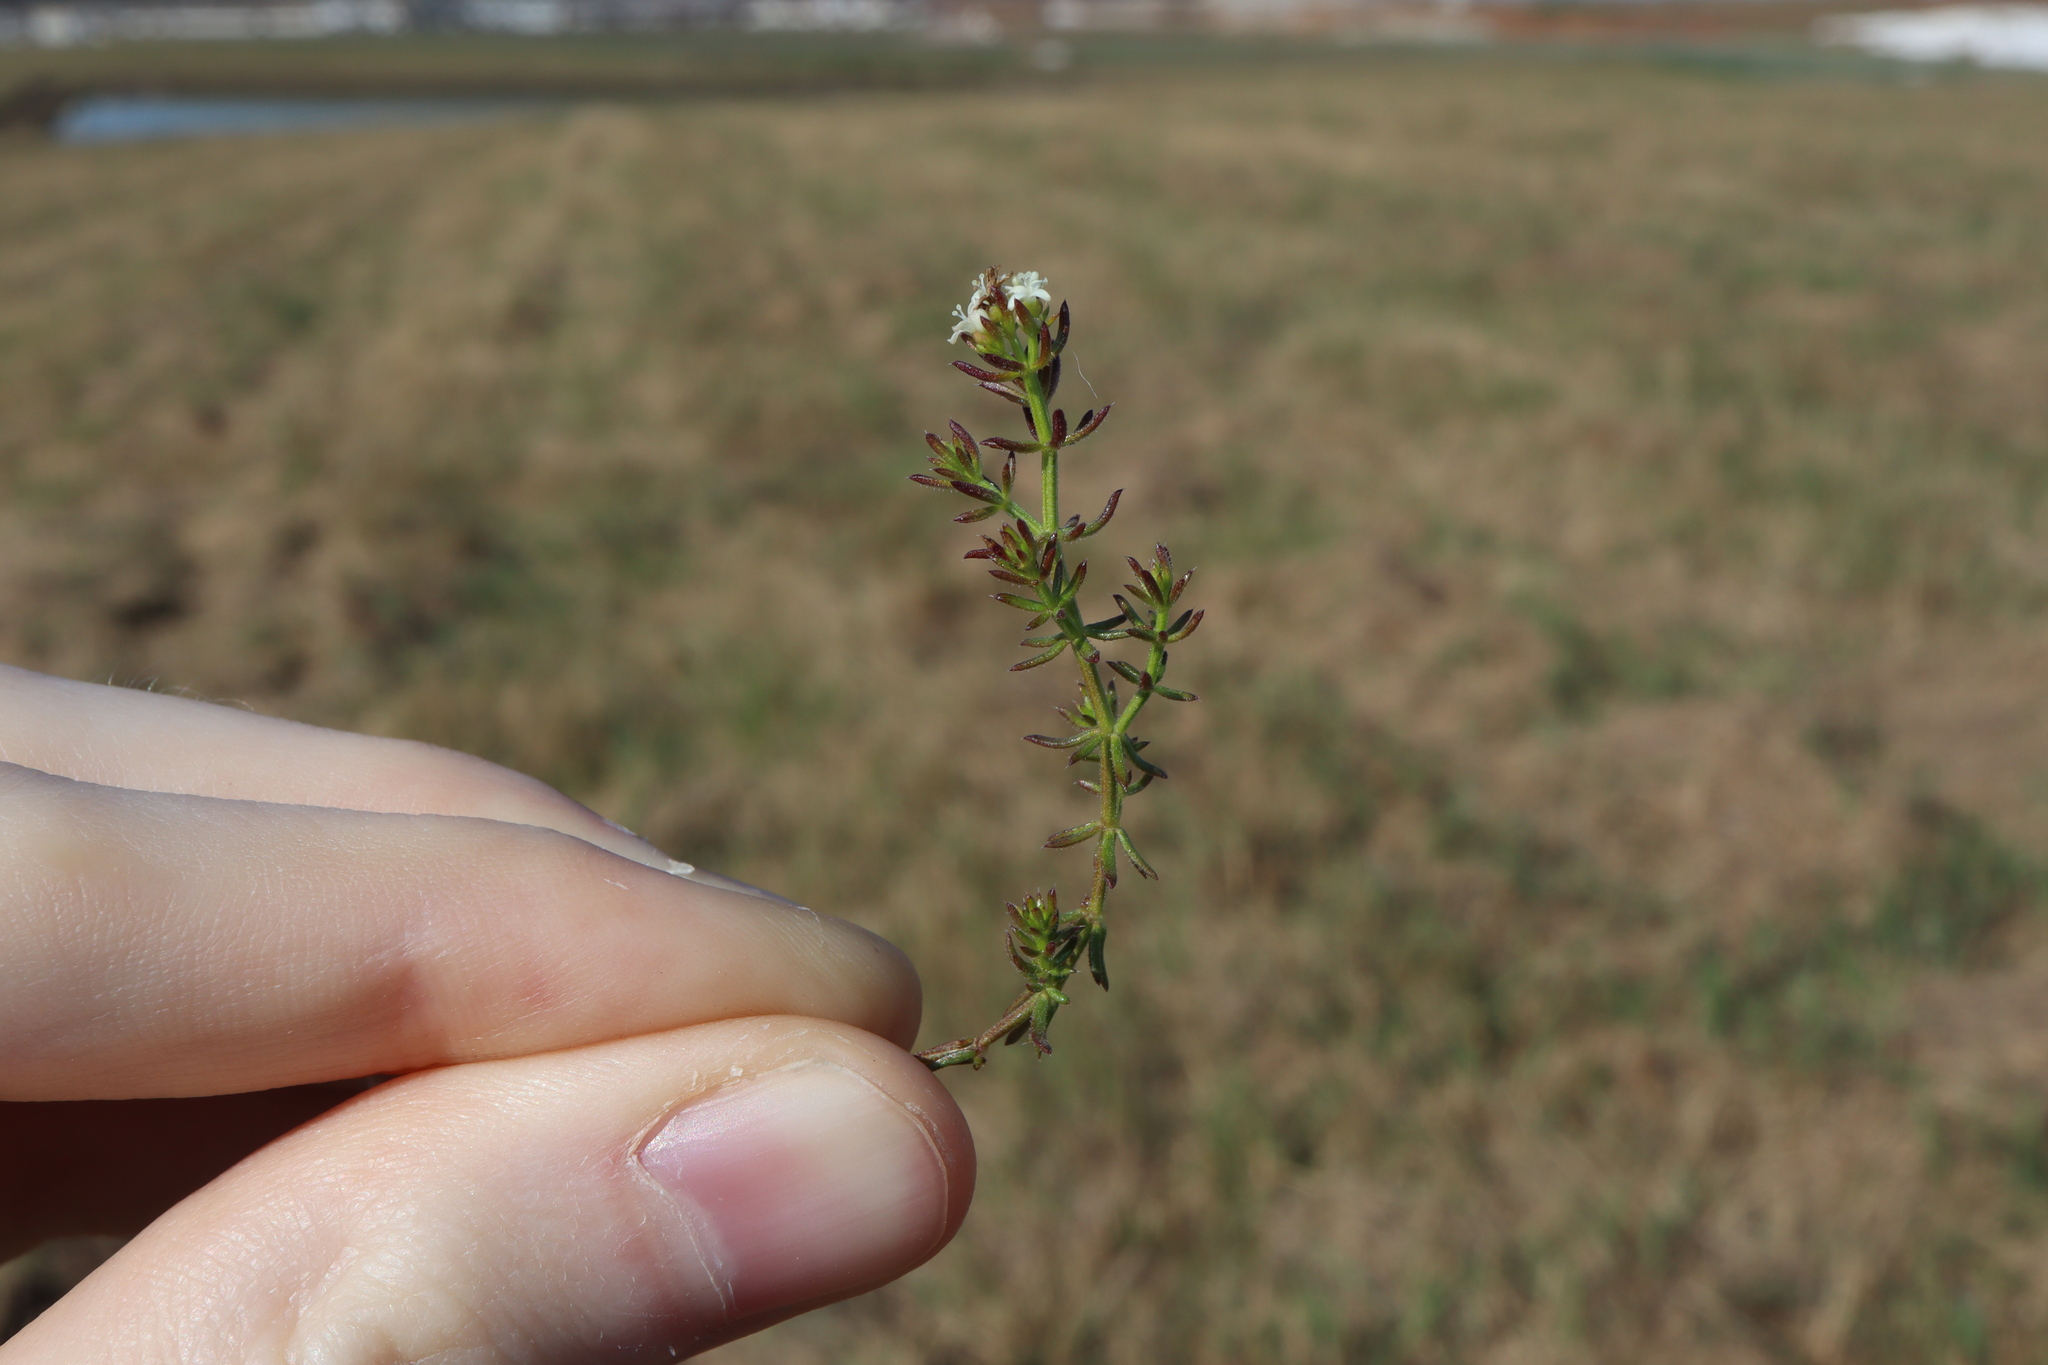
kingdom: Plantae
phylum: Tracheophyta
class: Magnoliopsida
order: Gentianales
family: Rubiaceae
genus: Asperula
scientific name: Asperula conferta
